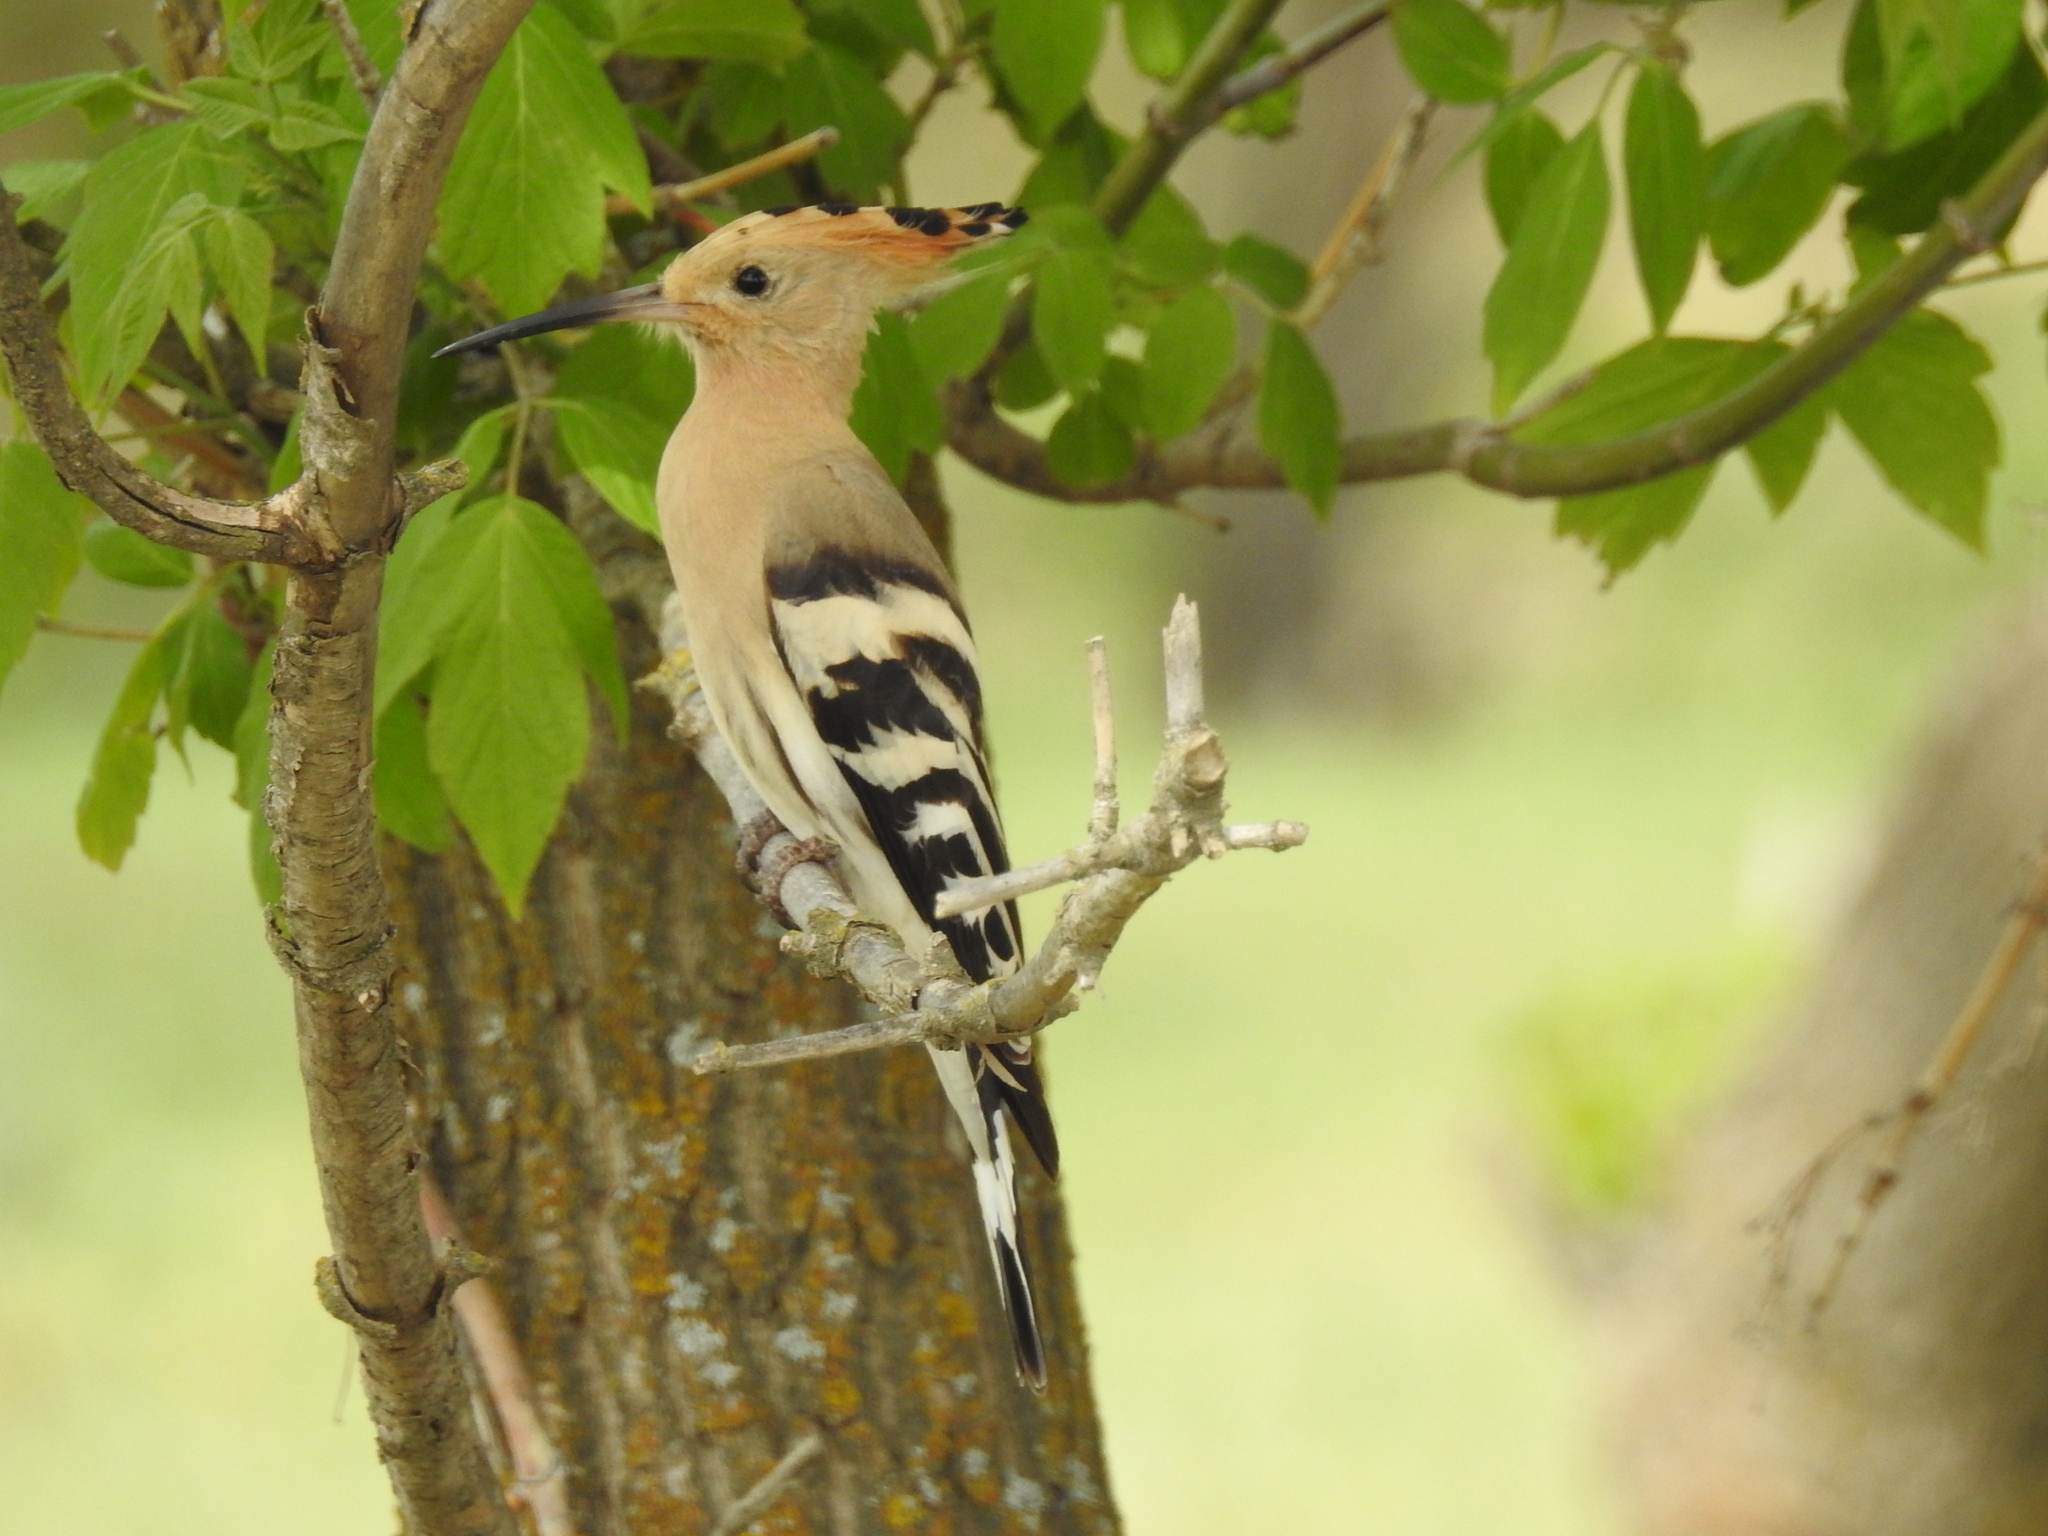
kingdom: Animalia
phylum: Chordata
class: Aves
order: Bucerotiformes
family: Upupidae
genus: Upupa
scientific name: Upupa epops
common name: Eurasian hoopoe
